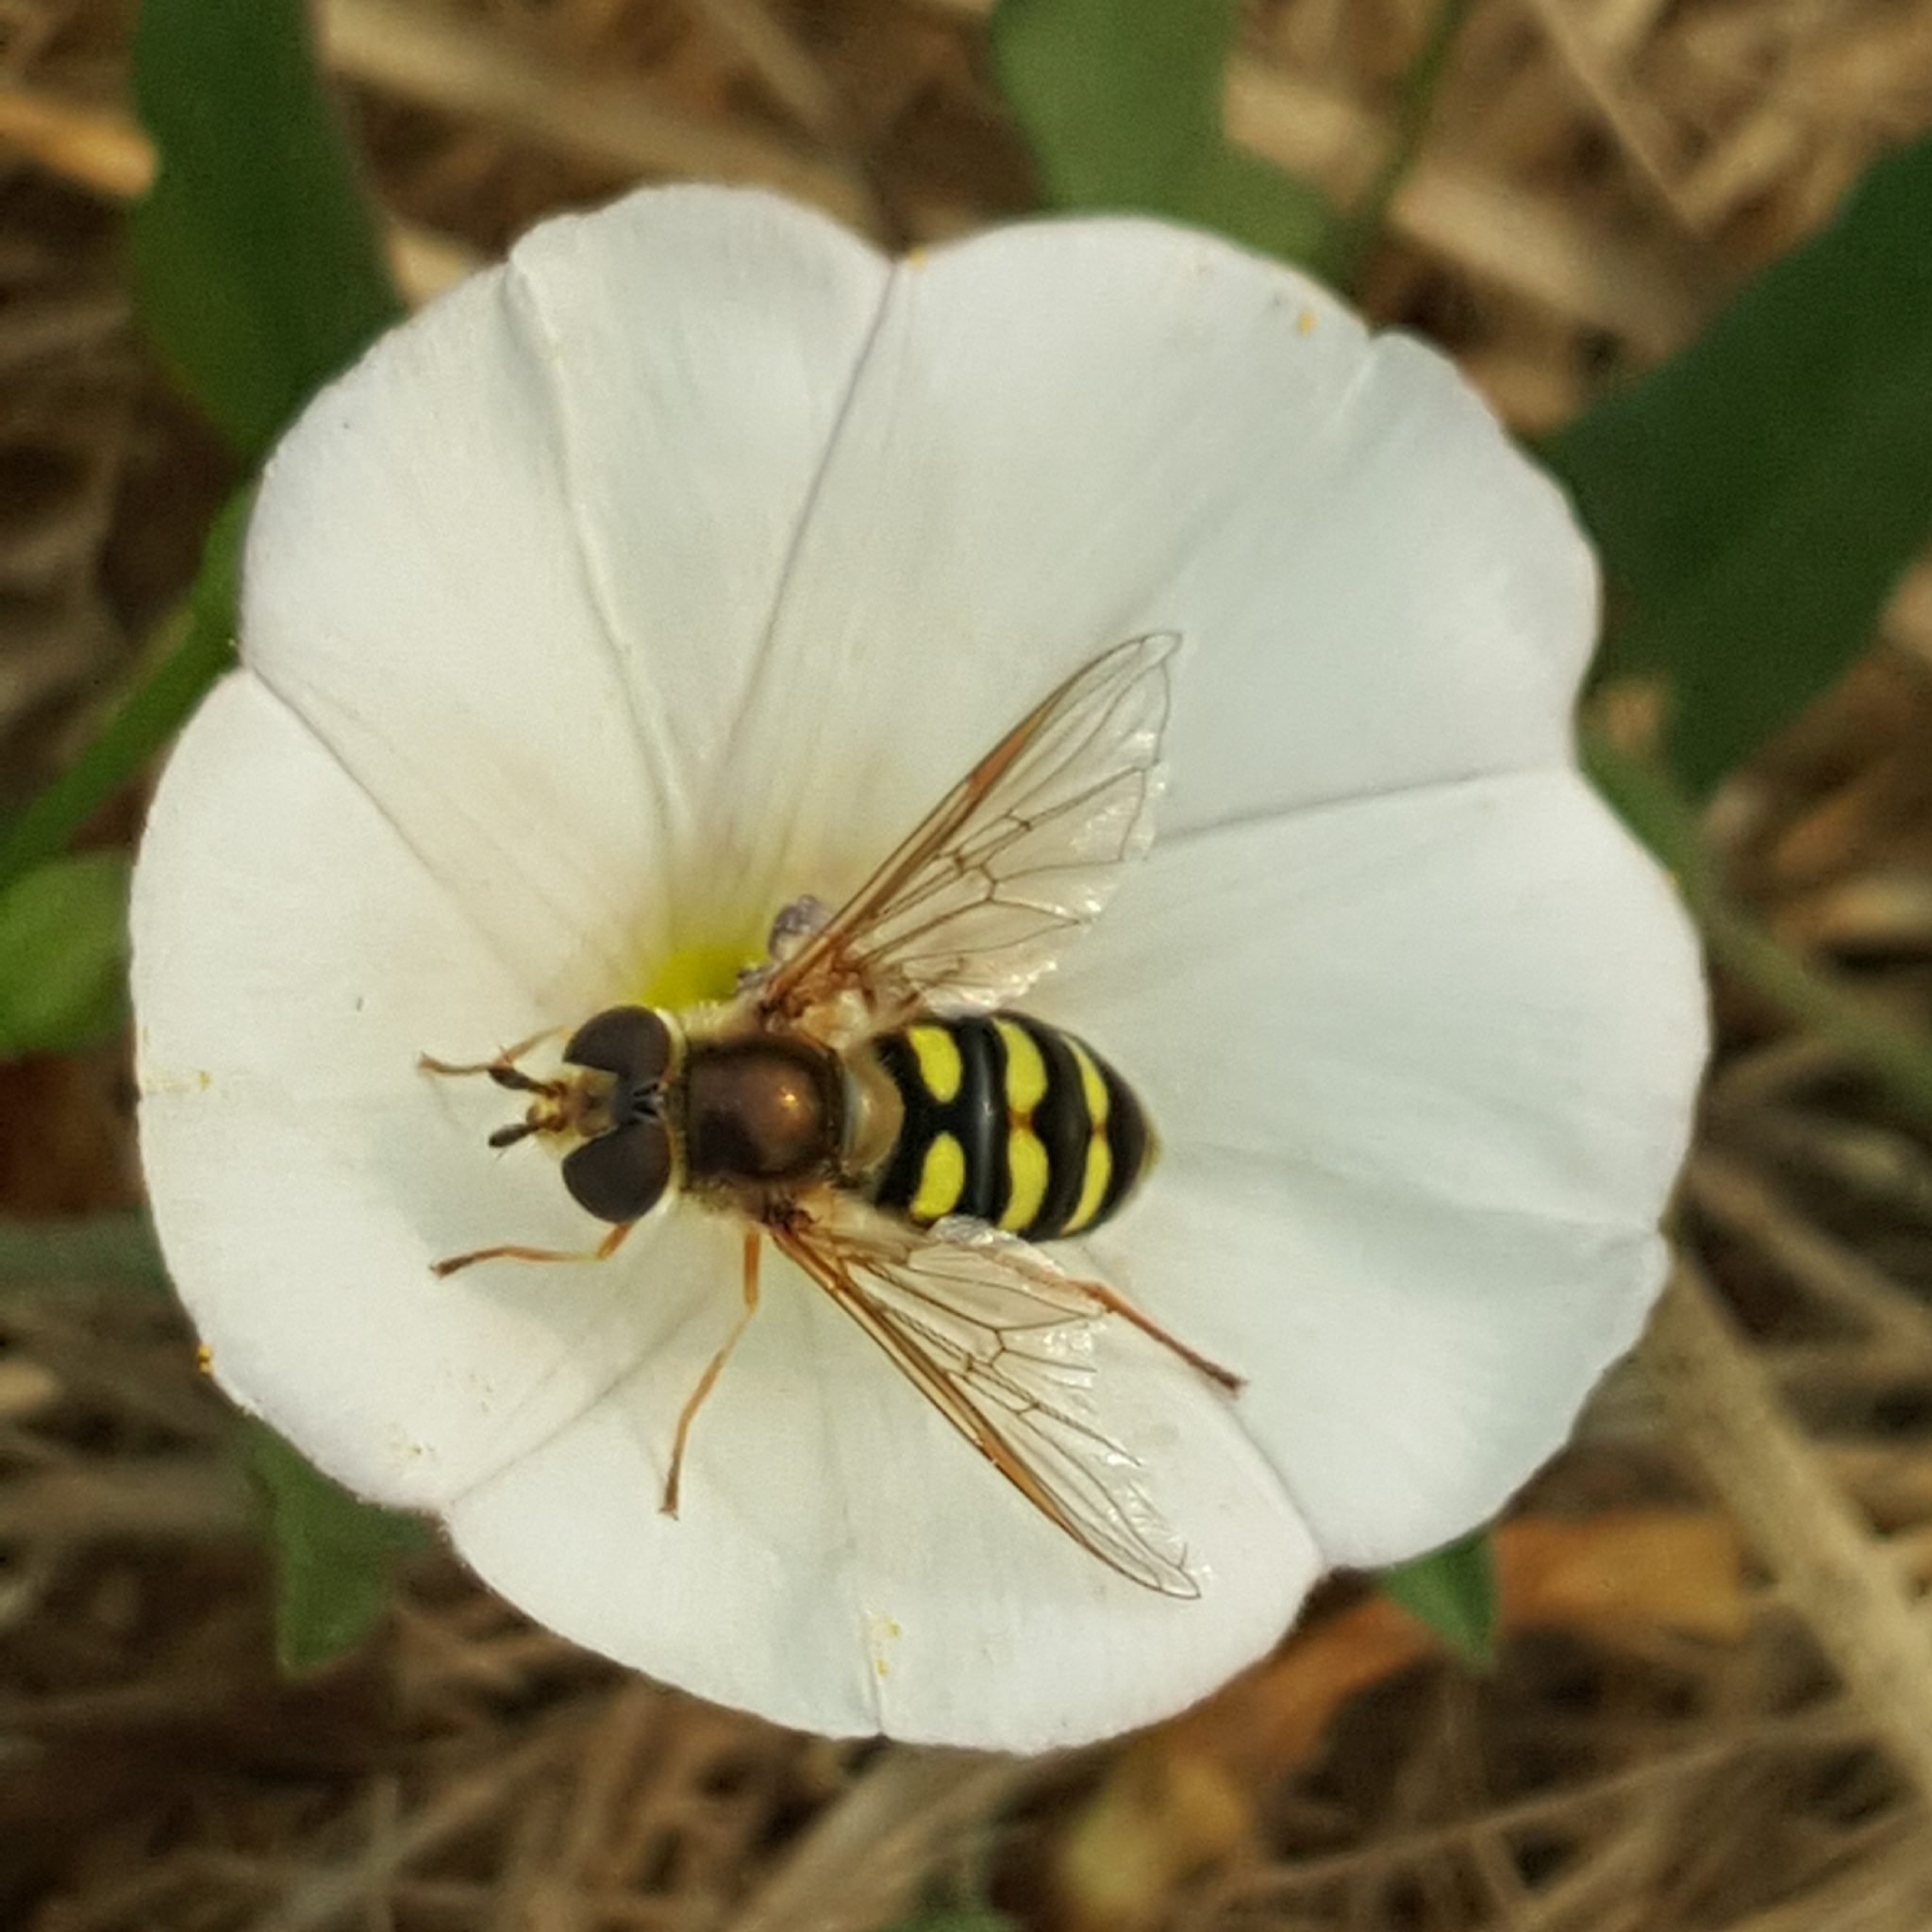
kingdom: Animalia
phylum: Arthropoda
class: Insecta
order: Diptera
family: Syrphidae
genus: Eupeodes
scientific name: Eupeodes fumipennis
